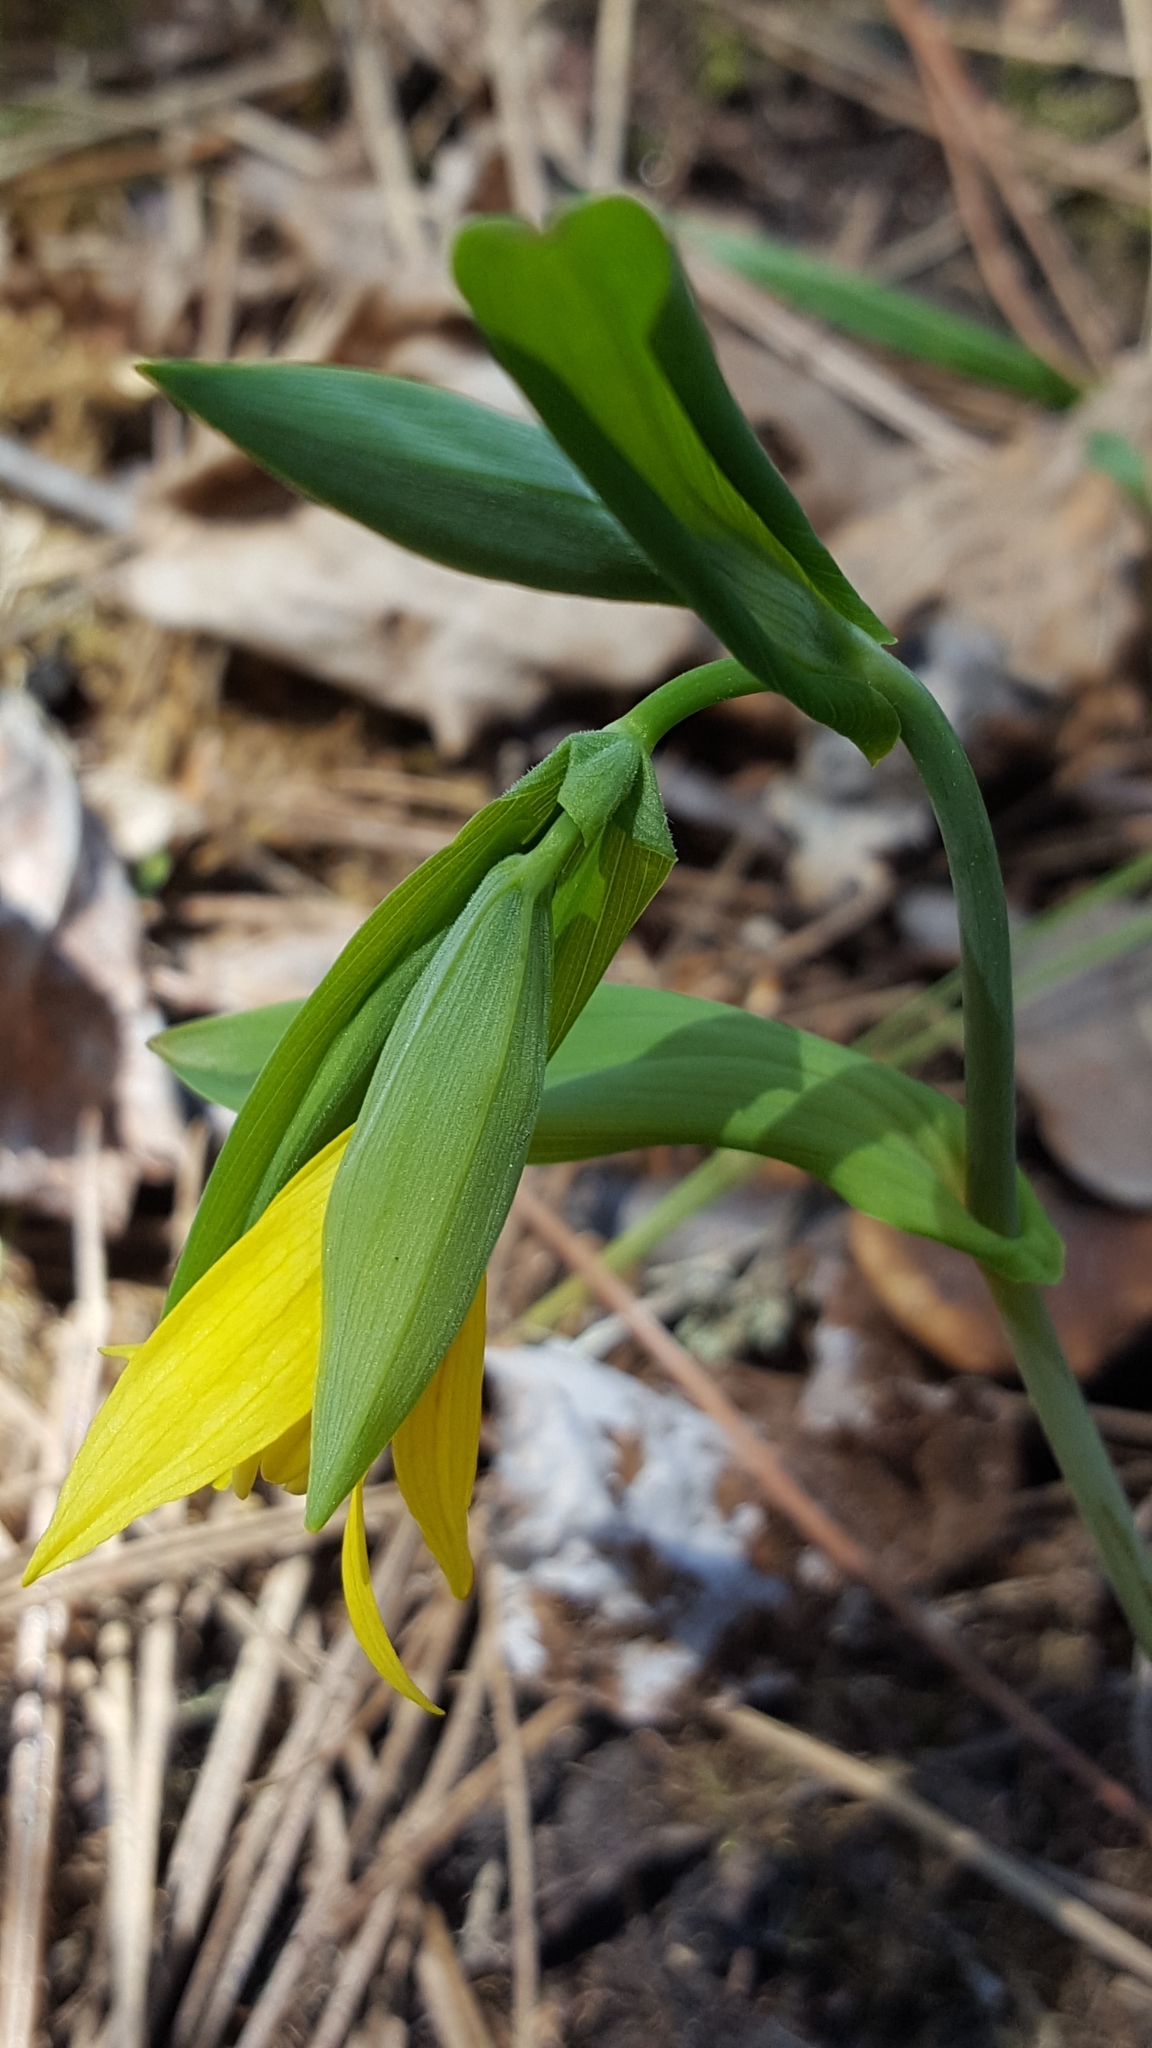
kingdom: Plantae
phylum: Tracheophyta
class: Liliopsida
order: Liliales
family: Colchicaceae
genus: Uvularia
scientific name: Uvularia grandiflora
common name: Bellwort
